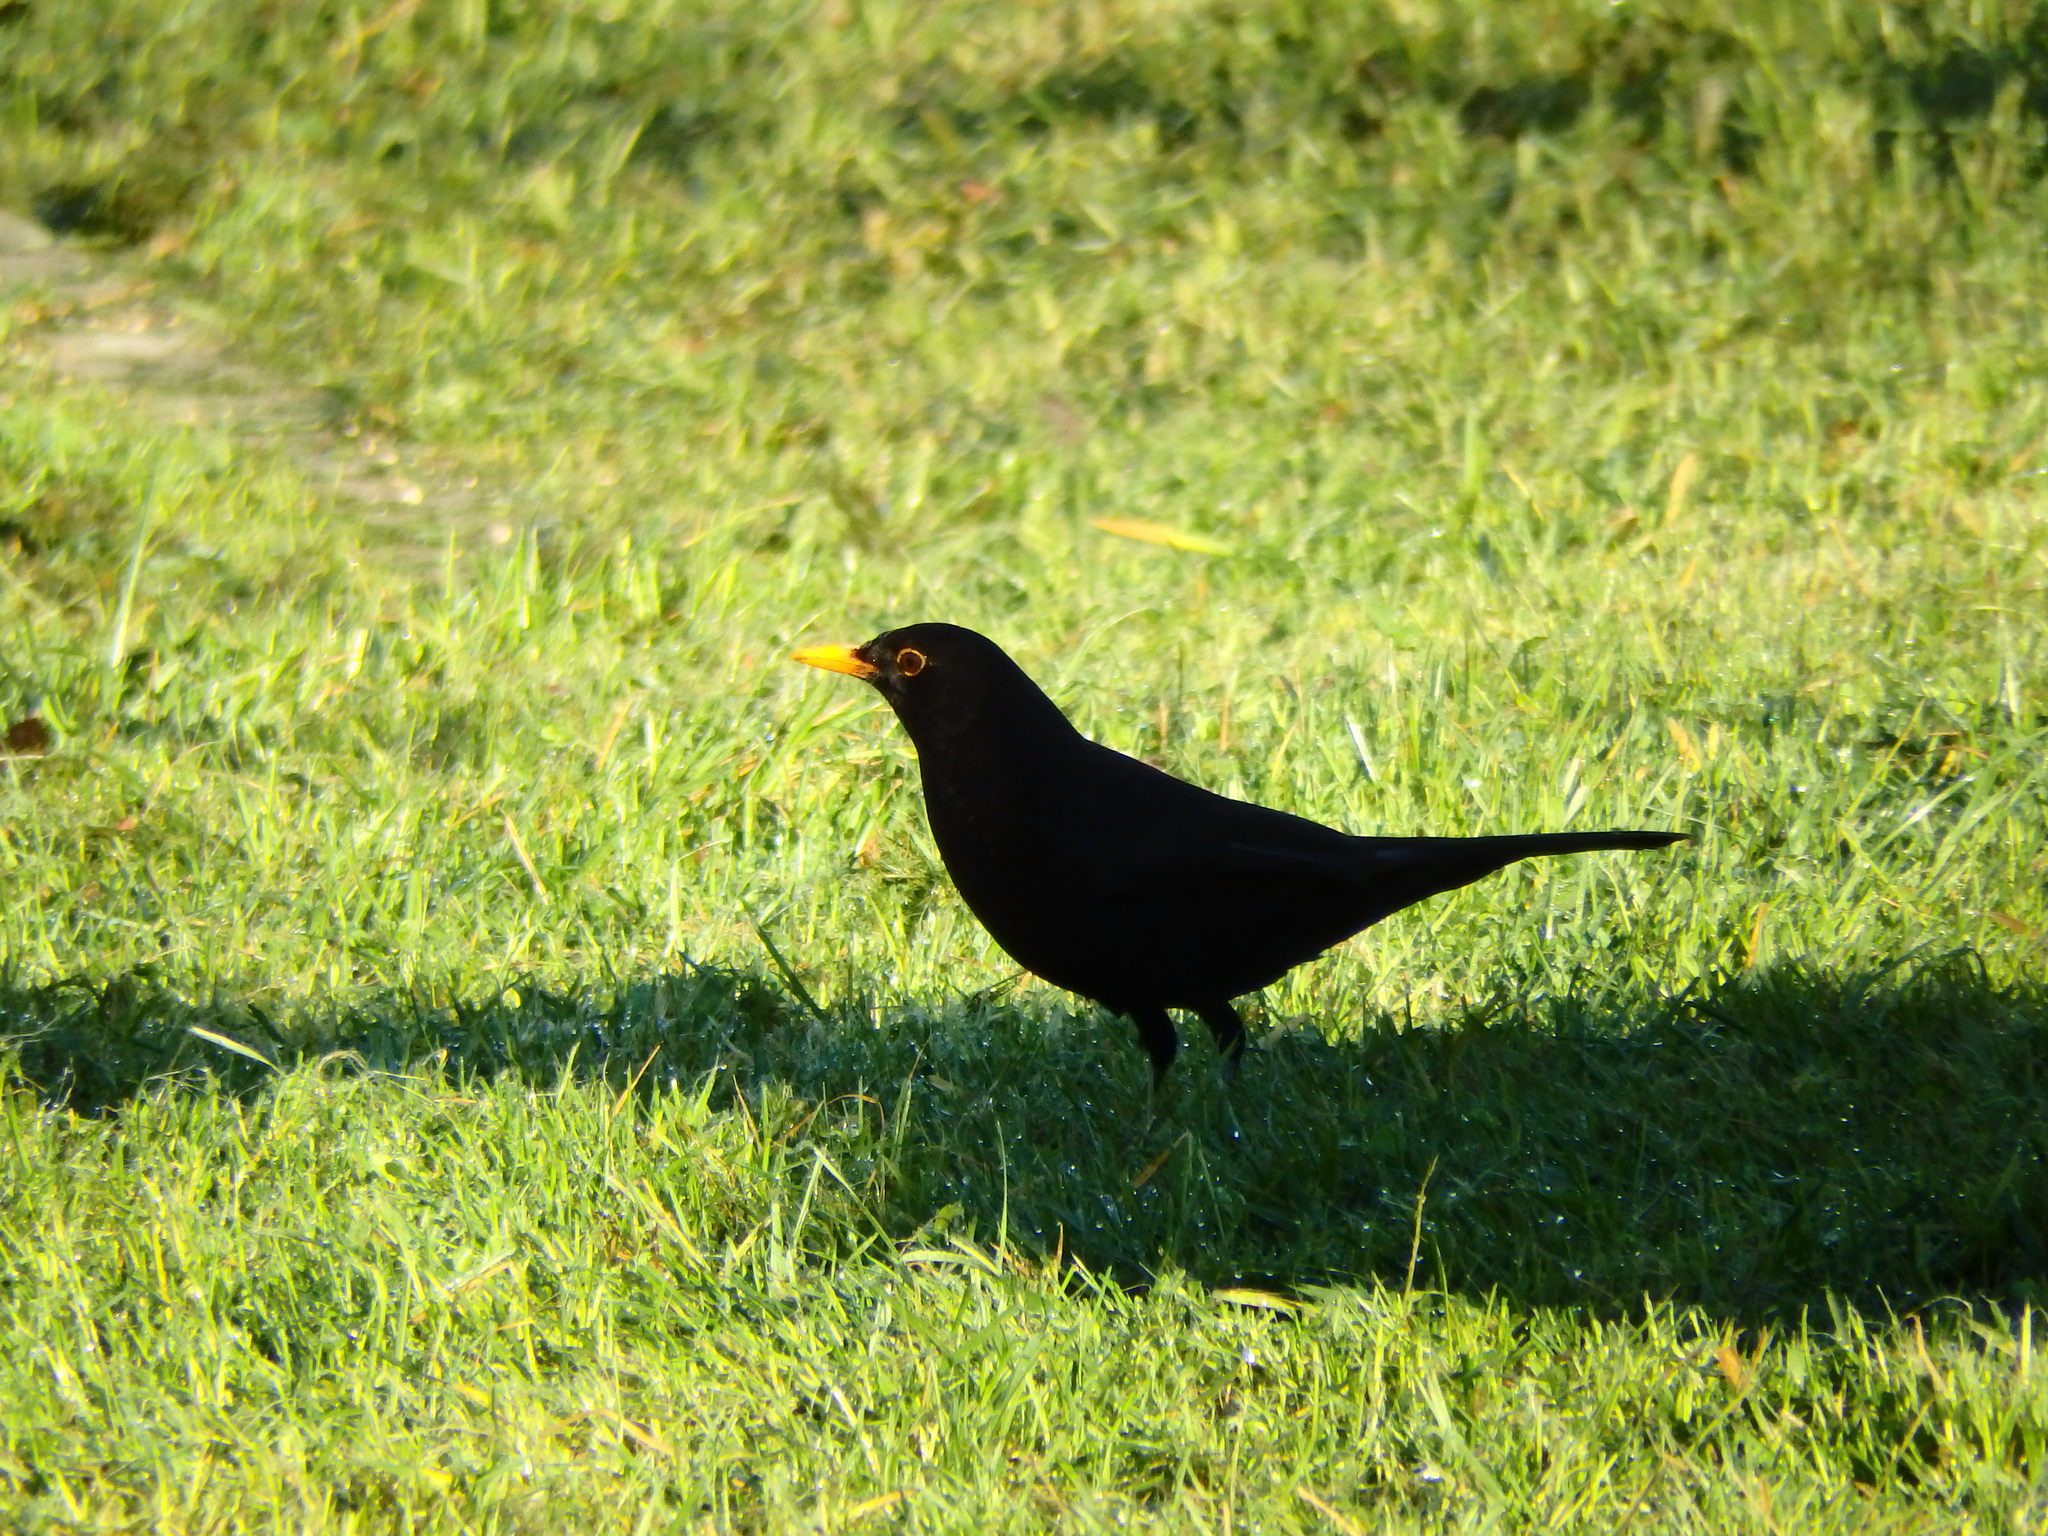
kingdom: Animalia
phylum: Chordata
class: Aves
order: Passeriformes
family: Turdidae
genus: Turdus
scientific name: Turdus merula
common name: Common blackbird
